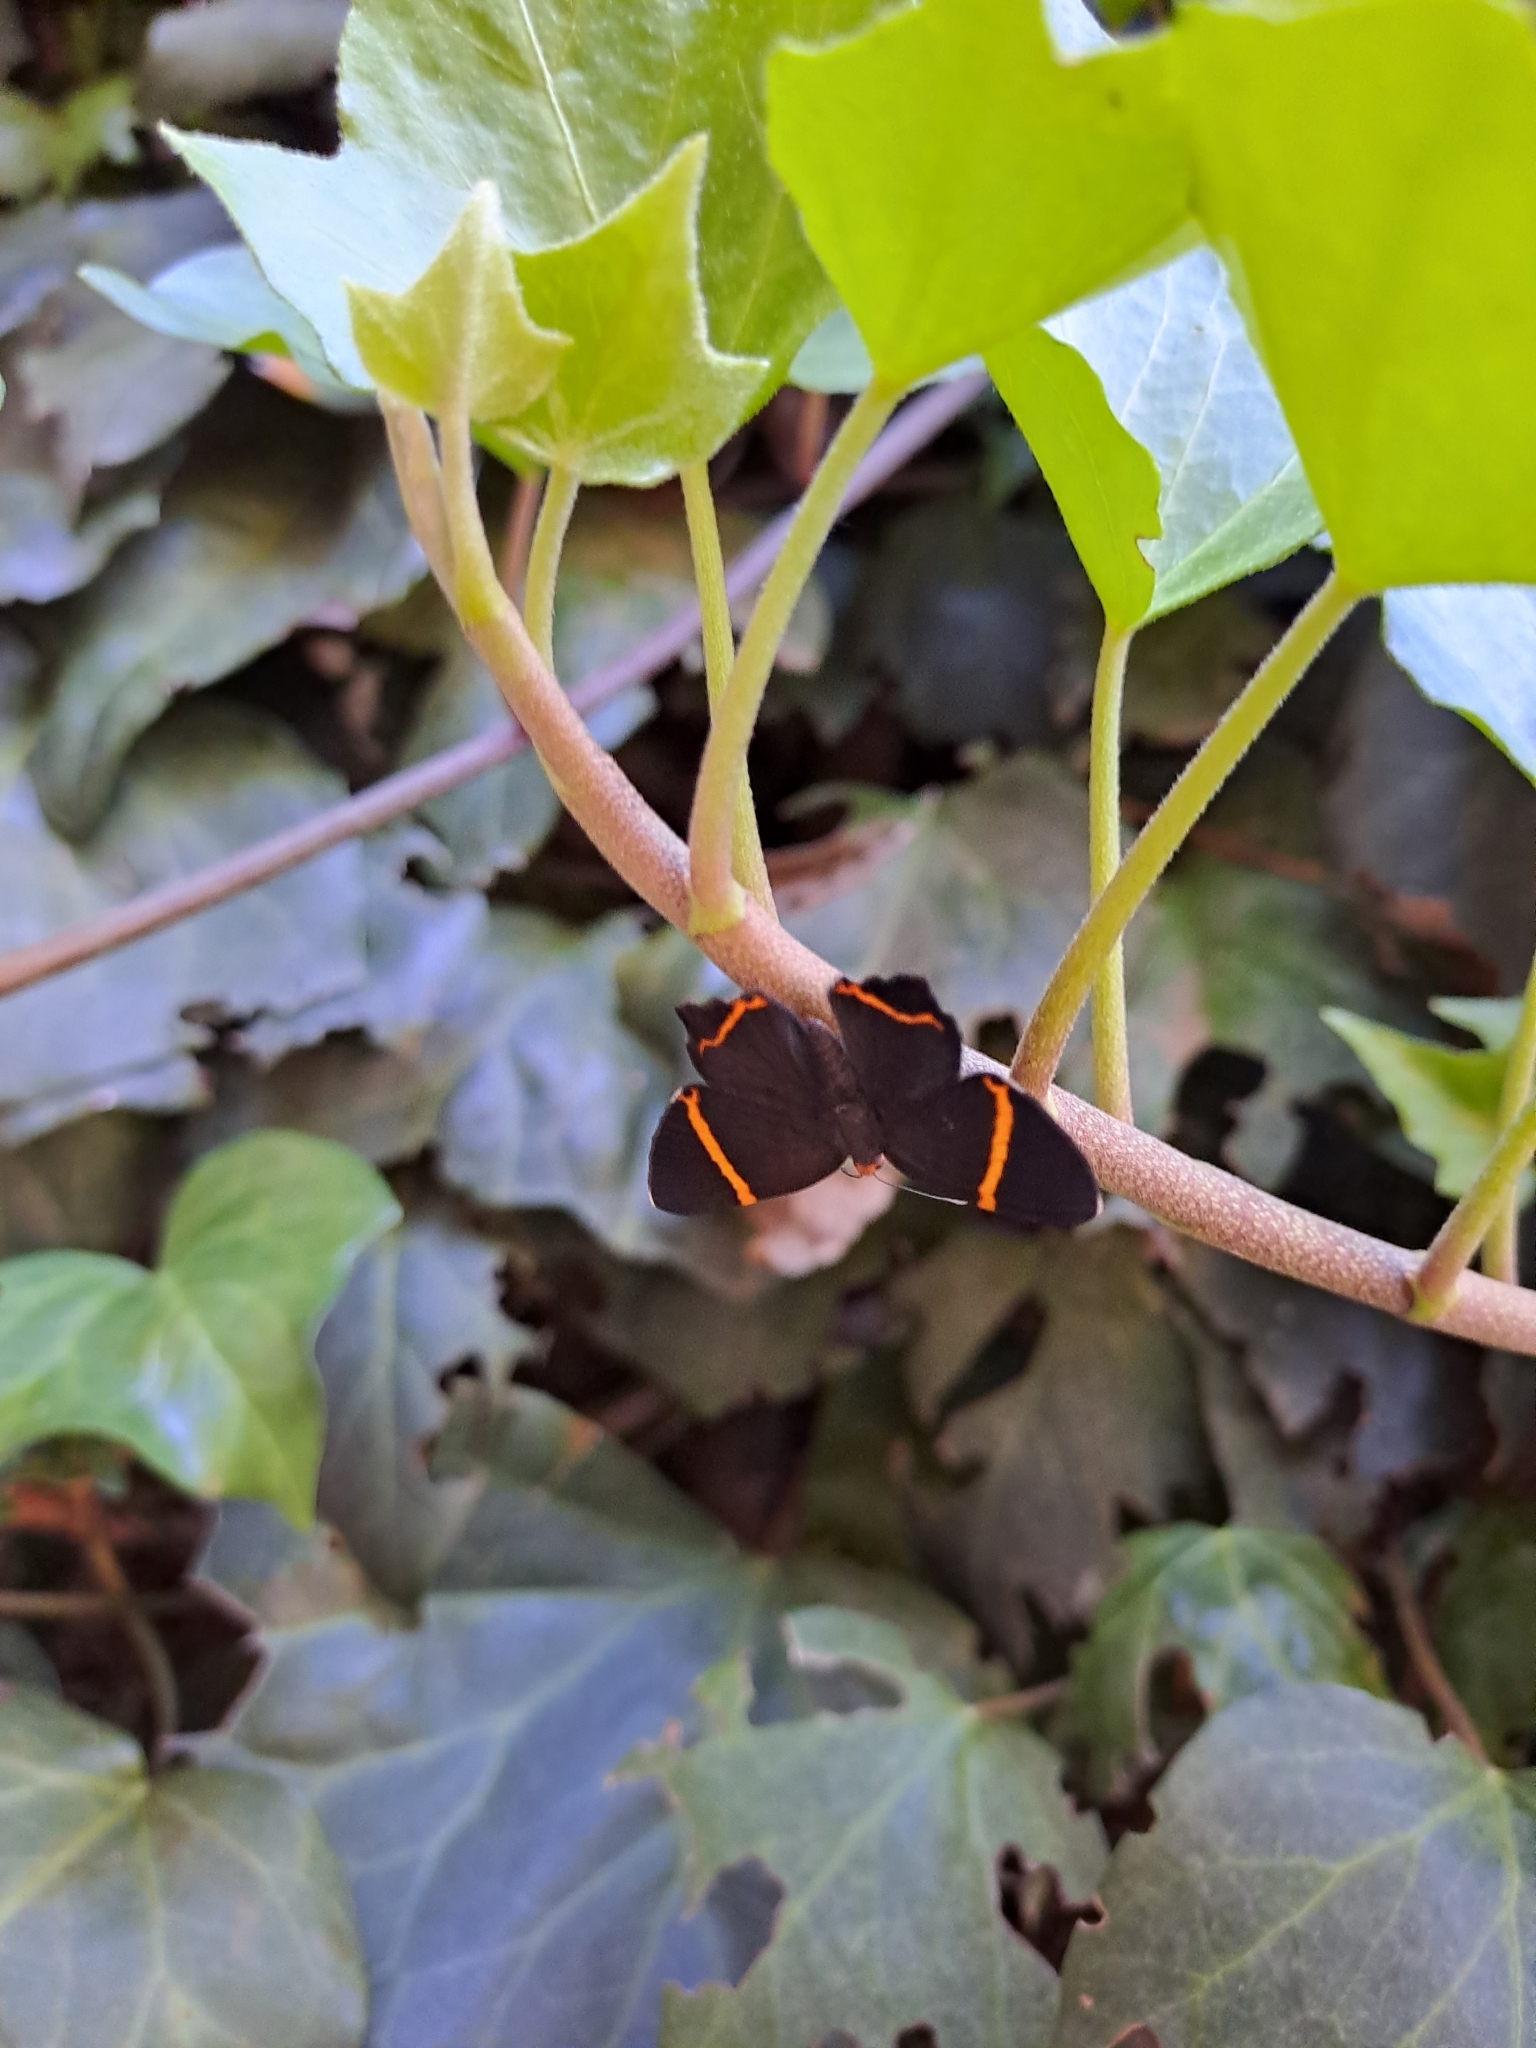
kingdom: Animalia
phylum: Arthropoda
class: Insecta
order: Lepidoptera
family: Riodinidae
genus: Riodina
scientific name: Riodina lysippoides
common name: Little dancer metalmark
